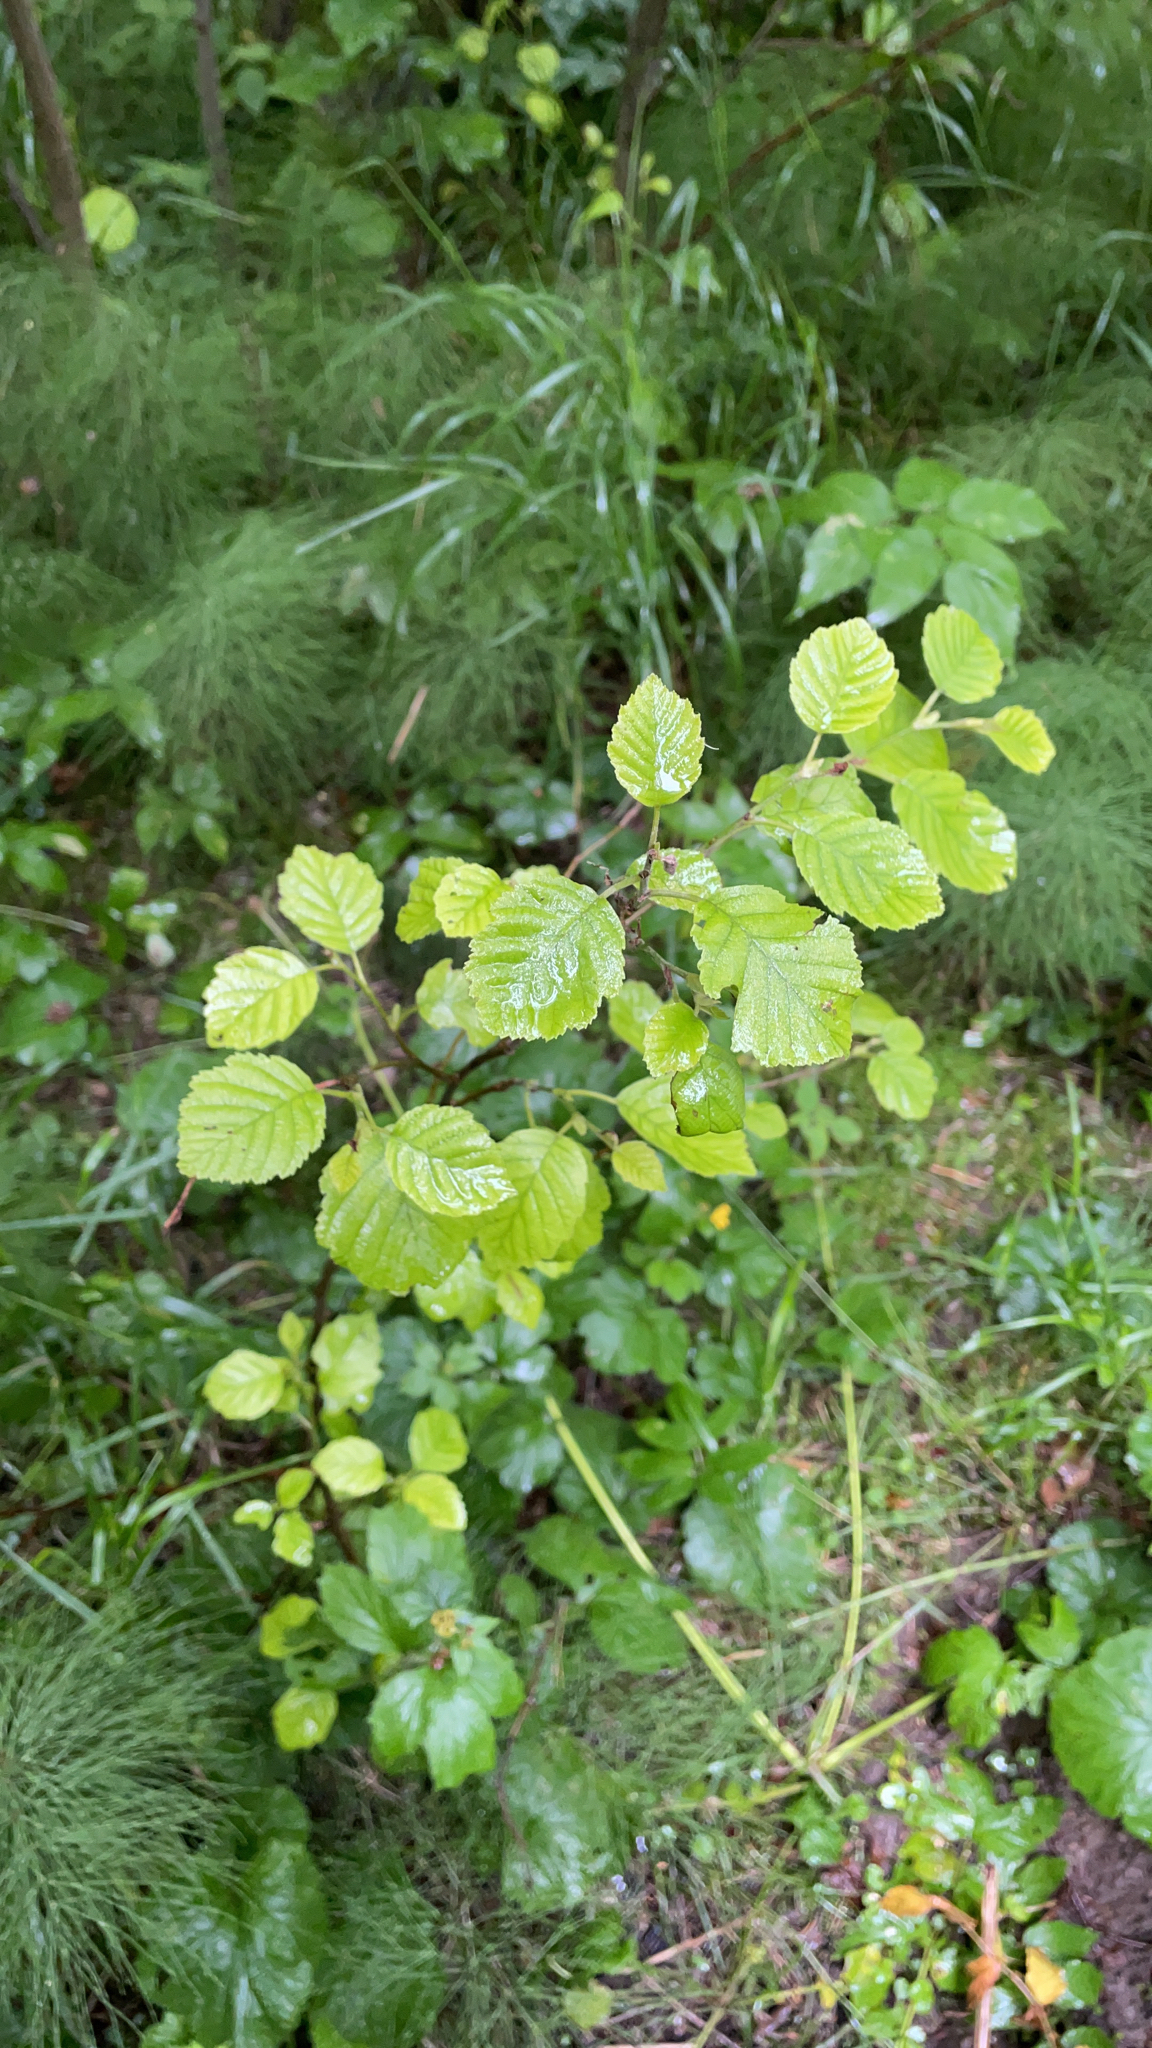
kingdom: Plantae
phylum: Tracheophyta
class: Magnoliopsida
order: Fagales
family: Betulaceae
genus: Alnus
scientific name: Alnus incana
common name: Grey alder
